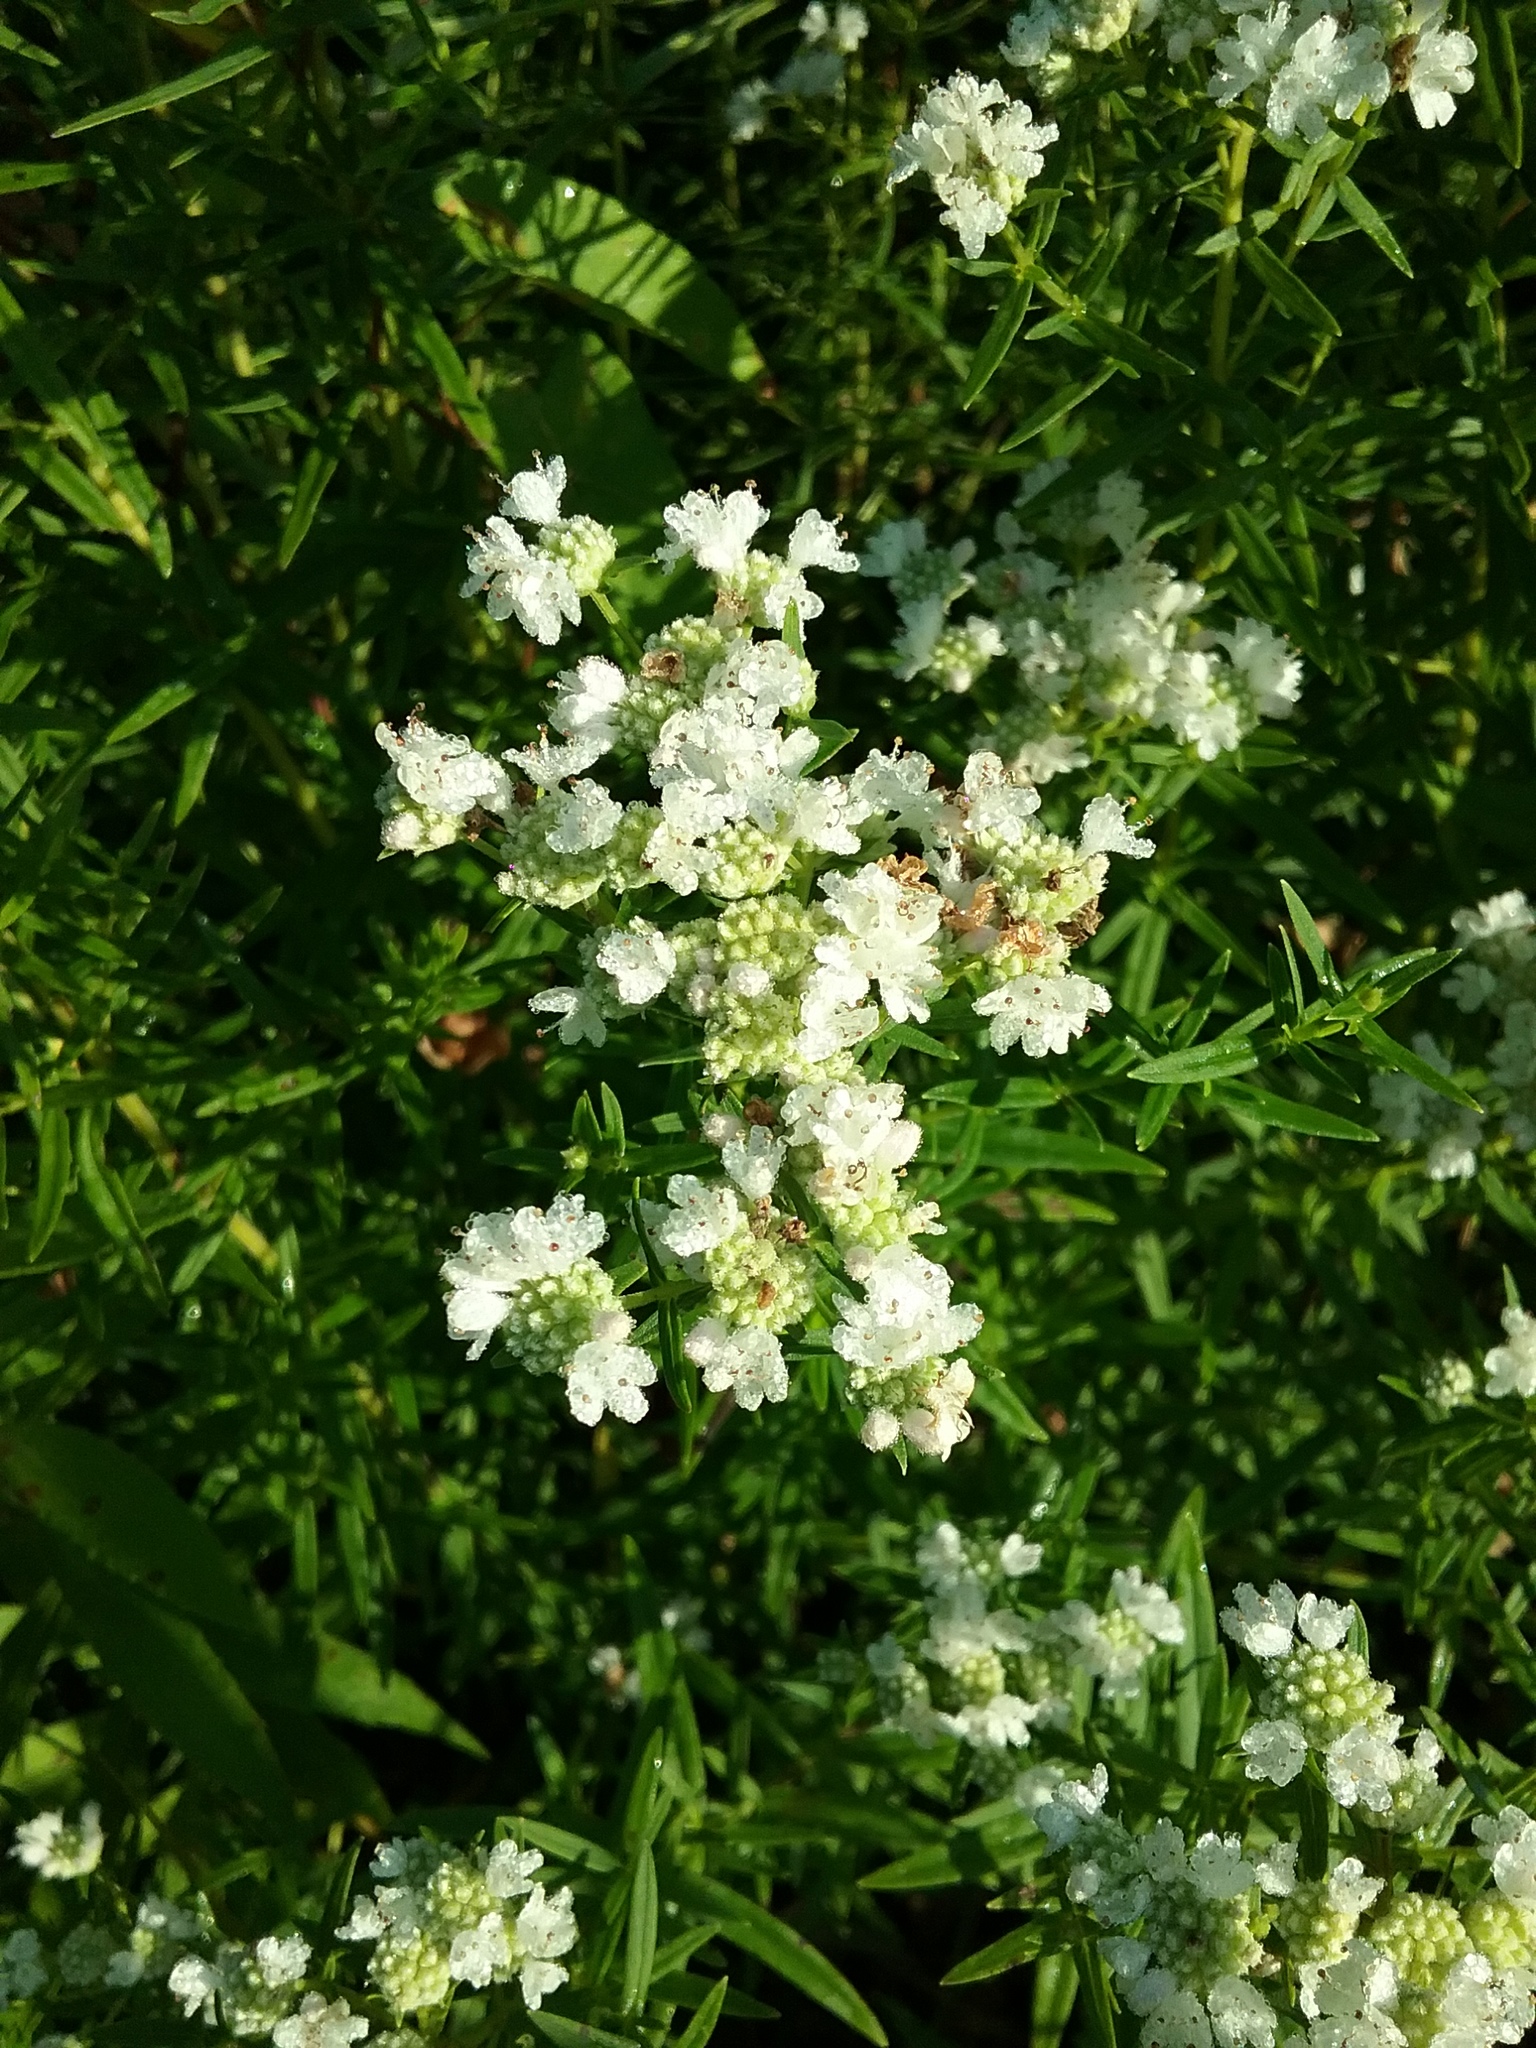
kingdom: Plantae
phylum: Tracheophyta
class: Magnoliopsida
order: Lamiales
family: Lamiaceae
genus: Pycnanthemum
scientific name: Pycnanthemum virginianum
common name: Virginia mountain-mint
